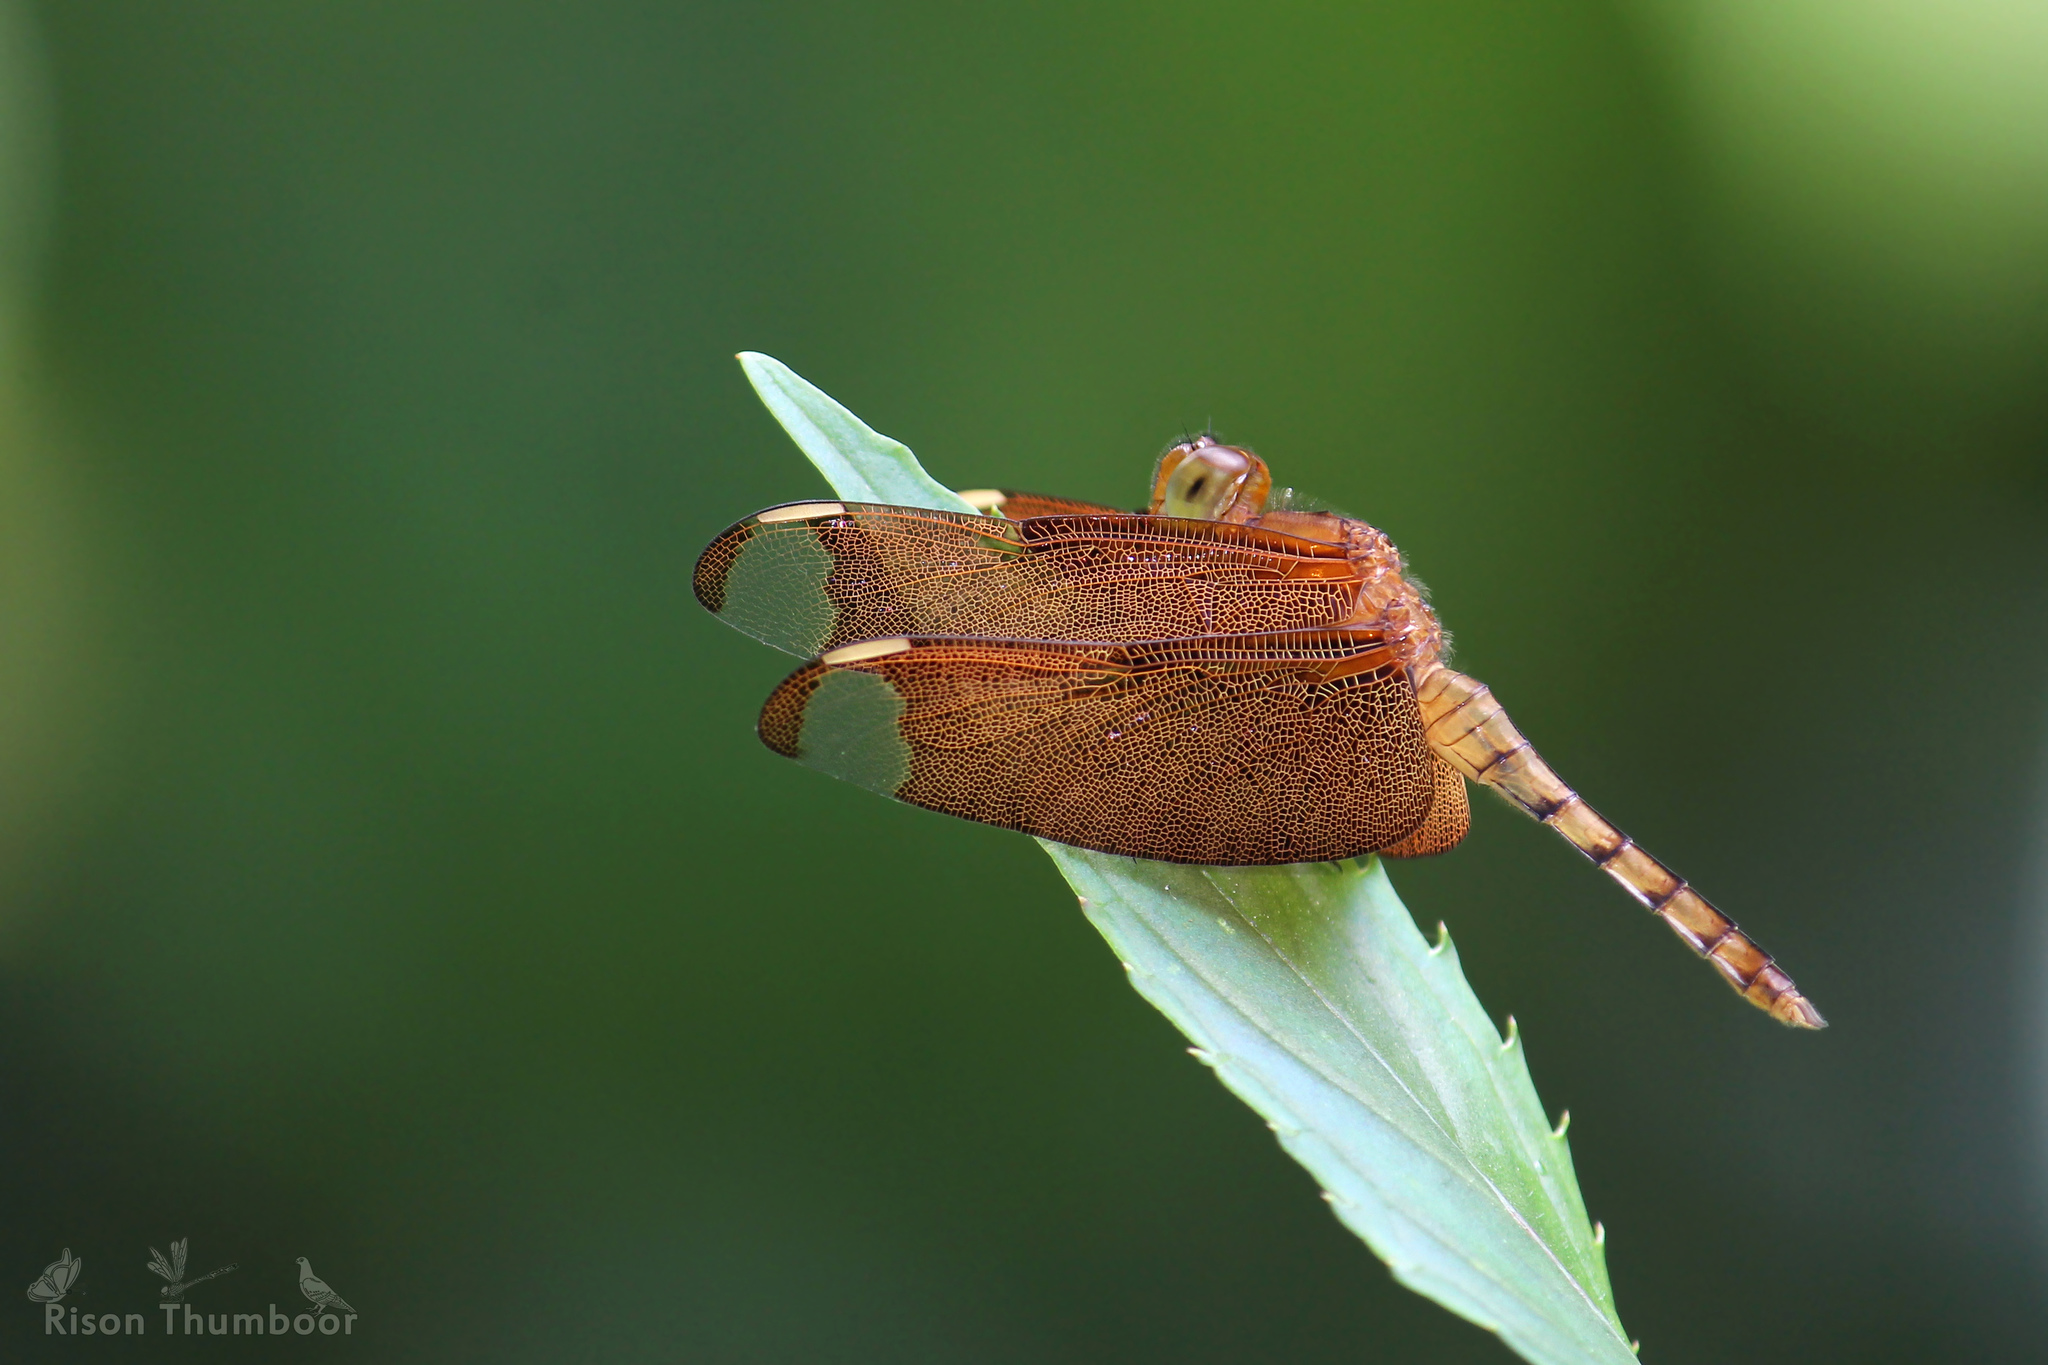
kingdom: Animalia
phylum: Arthropoda
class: Insecta
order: Odonata
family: Libellulidae
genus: Neurothemis
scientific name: Neurothemis fulvia
